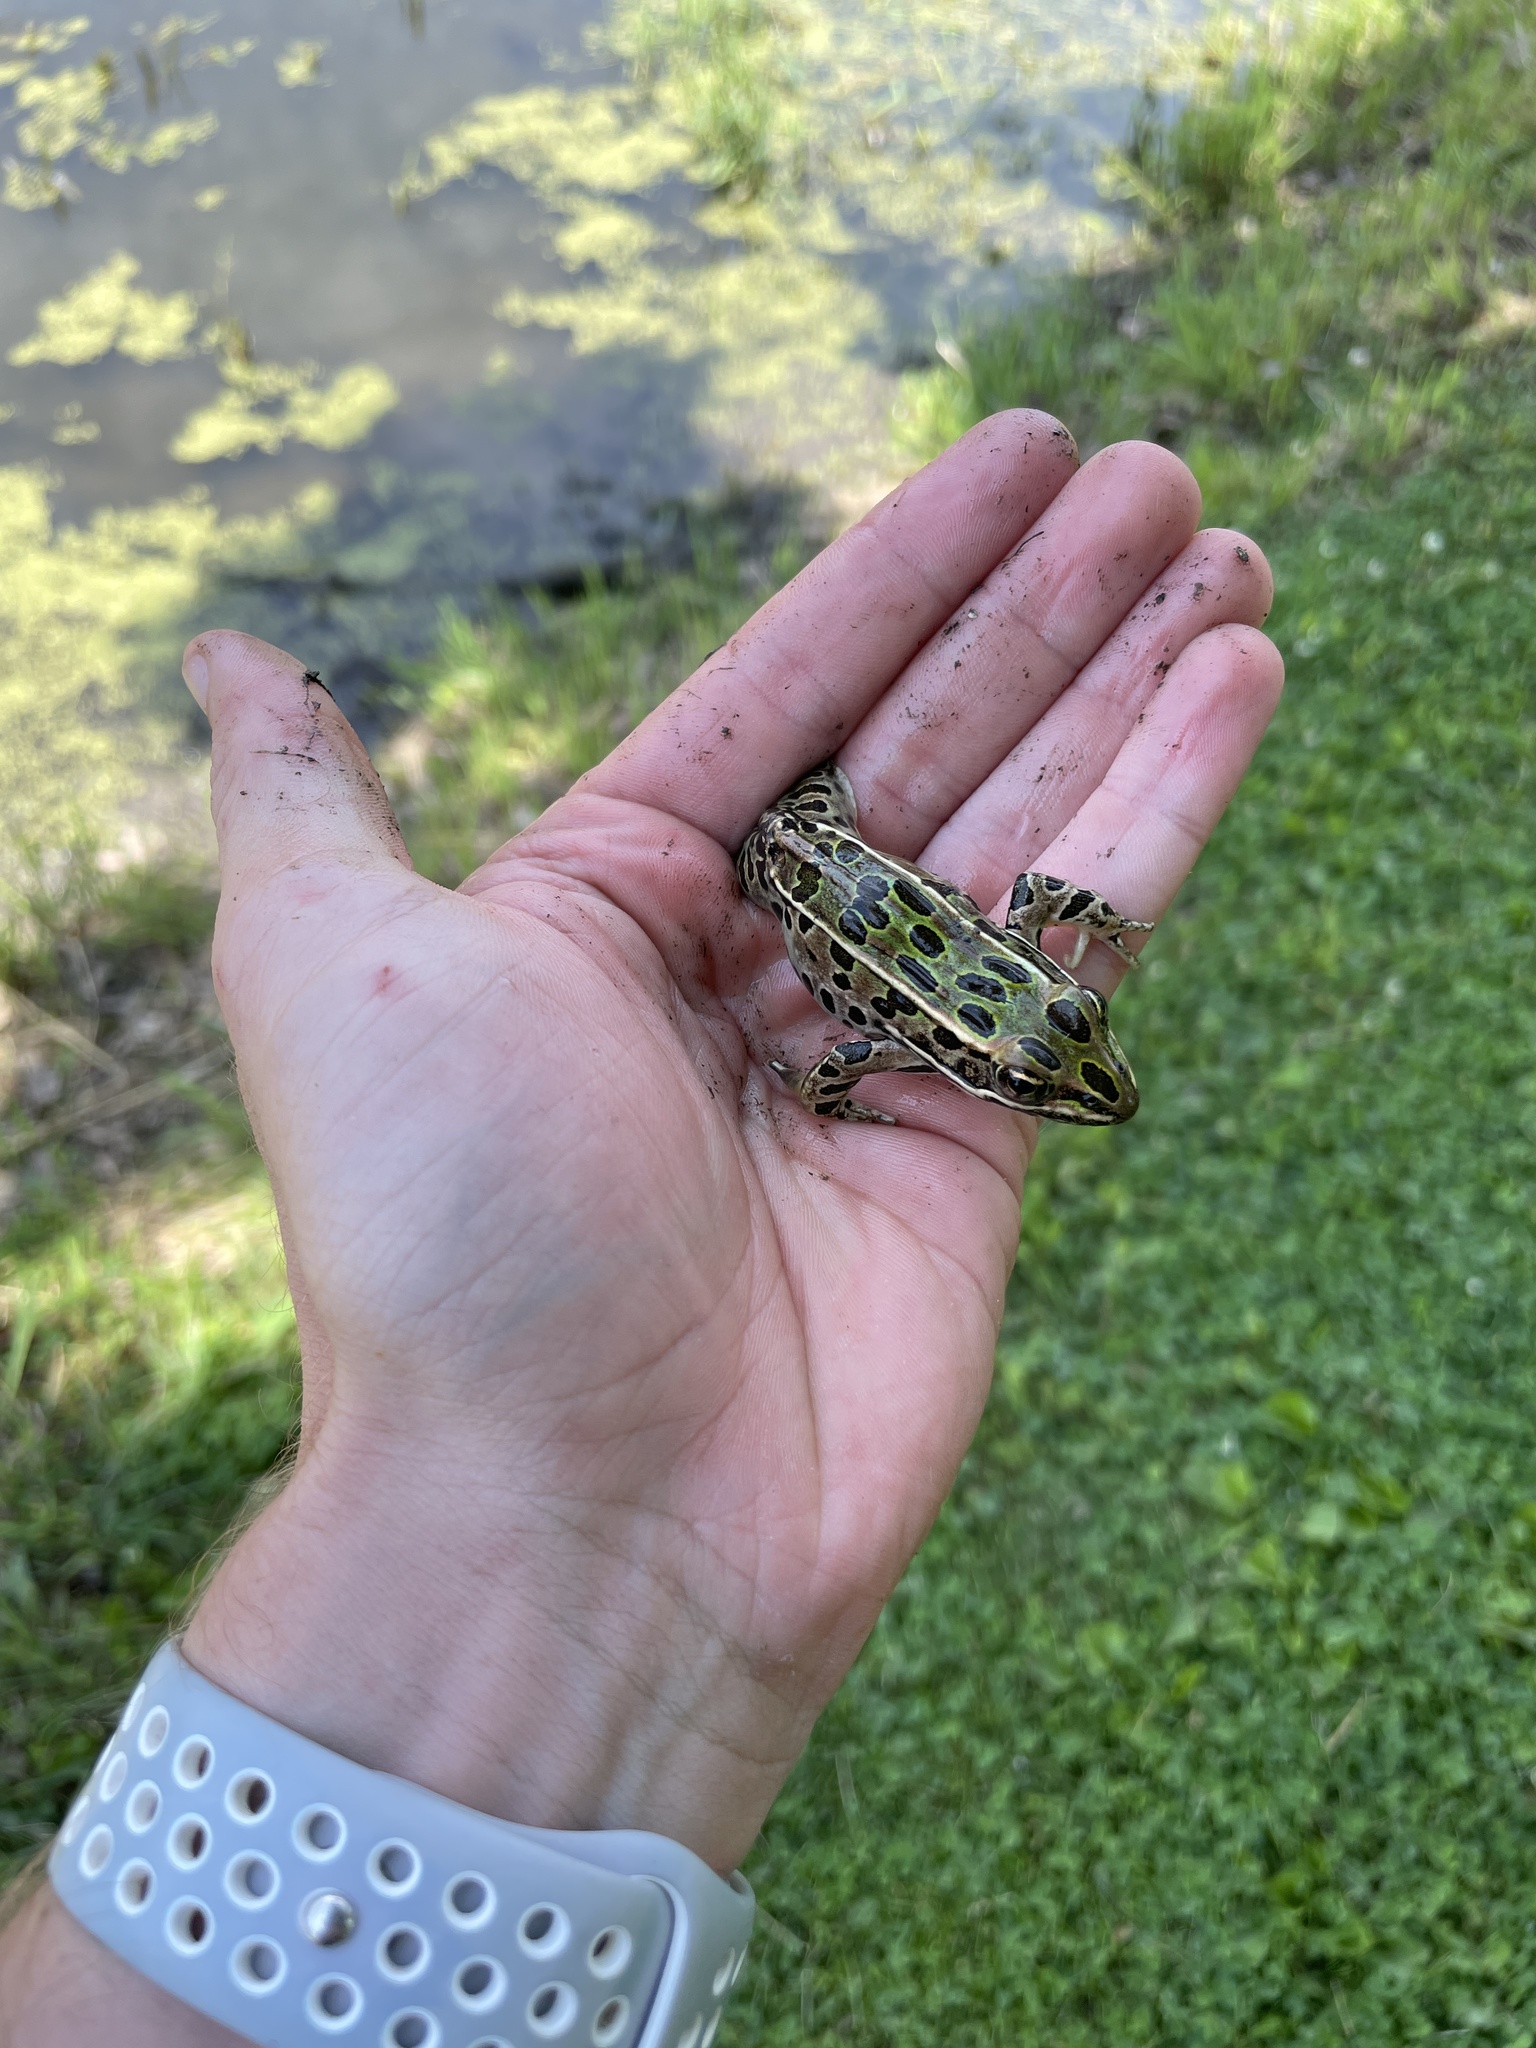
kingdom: Animalia
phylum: Chordata
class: Amphibia
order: Anura
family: Ranidae
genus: Lithobates
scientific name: Lithobates pipiens
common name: Northern leopard frog
